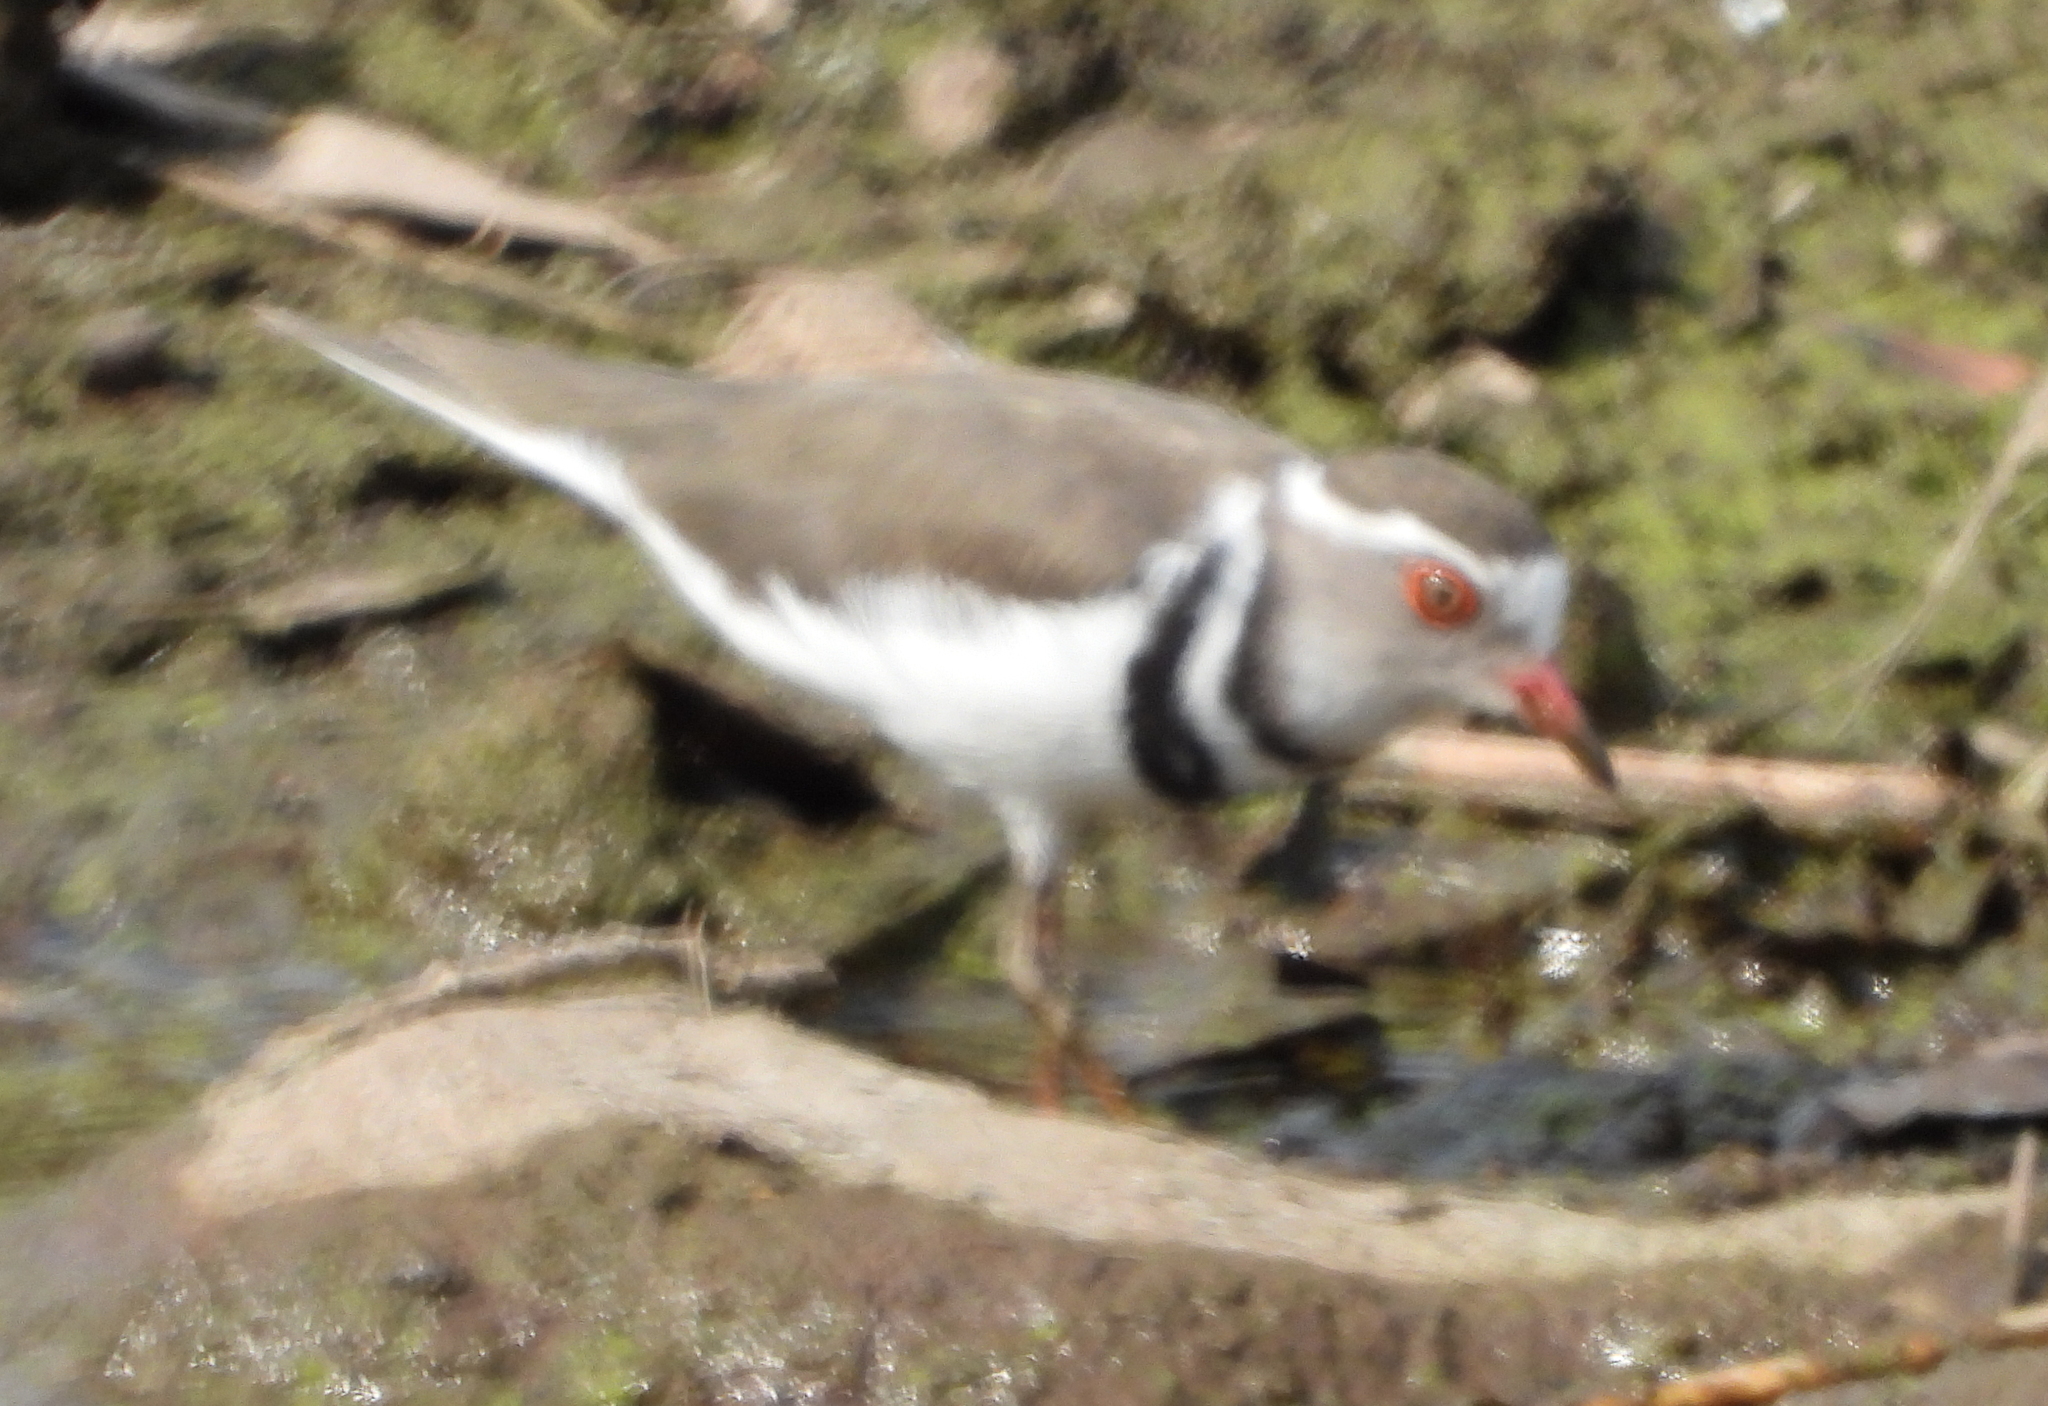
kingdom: Animalia
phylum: Chordata
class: Aves
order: Charadriiformes
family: Charadriidae
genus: Charadrius
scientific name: Charadrius tricollaris
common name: Three-banded plover
